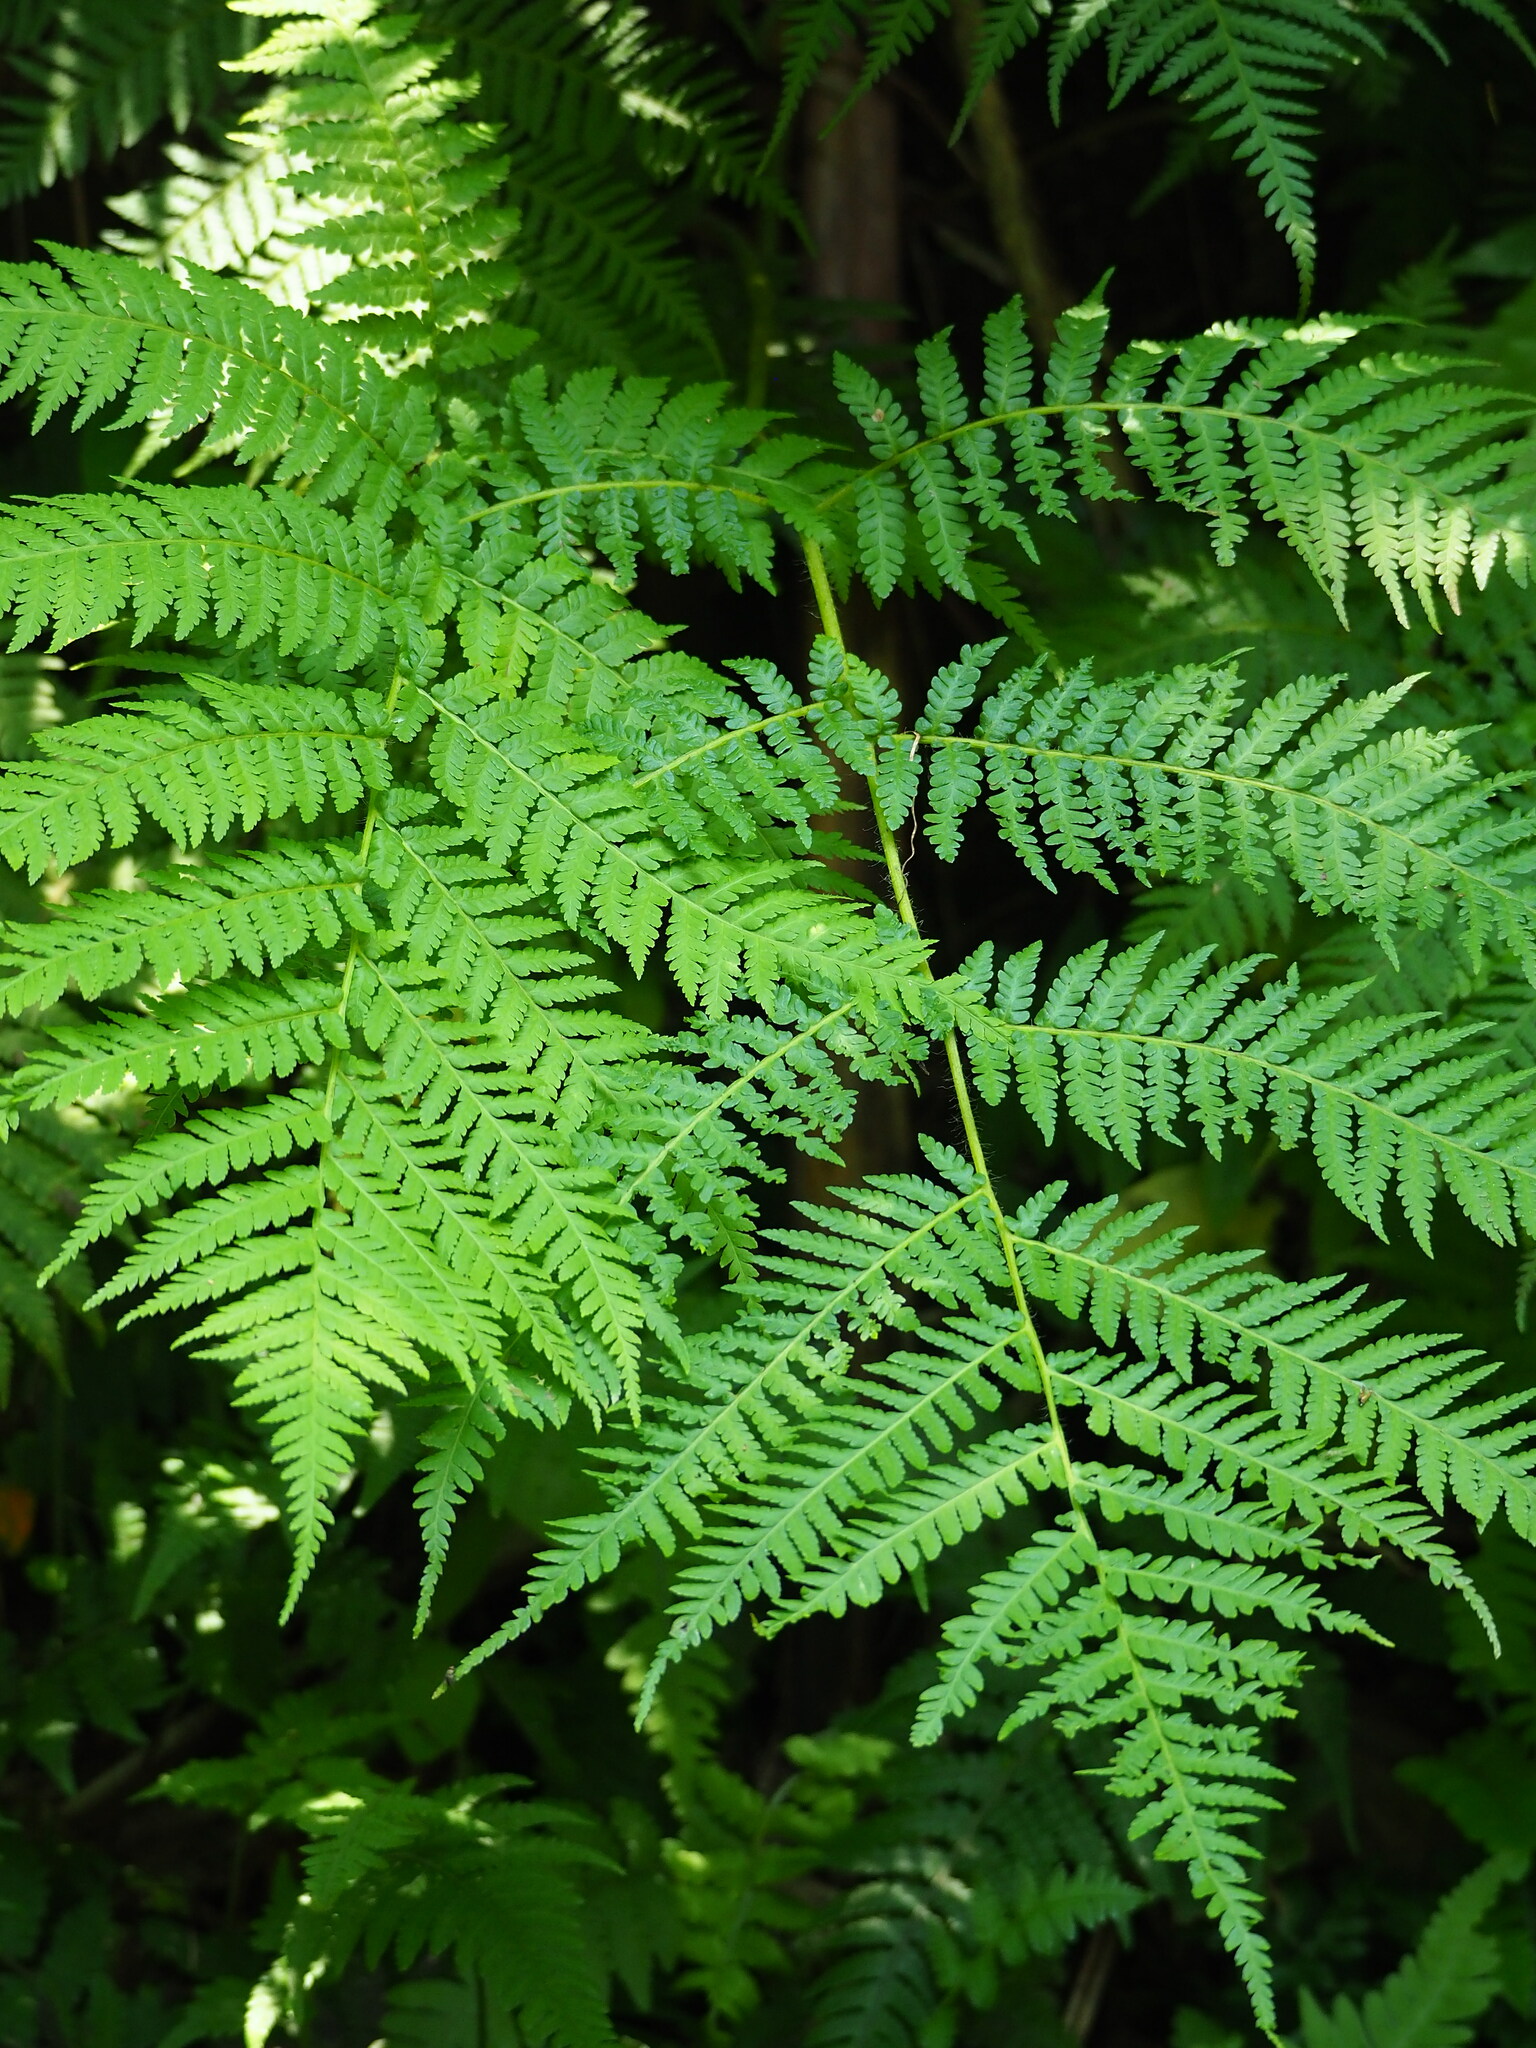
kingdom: Plantae
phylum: Tracheophyta
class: Polypodiopsida
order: Cyatheales
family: Cyatheaceae
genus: Alsophila
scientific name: Alsophila lepifera
